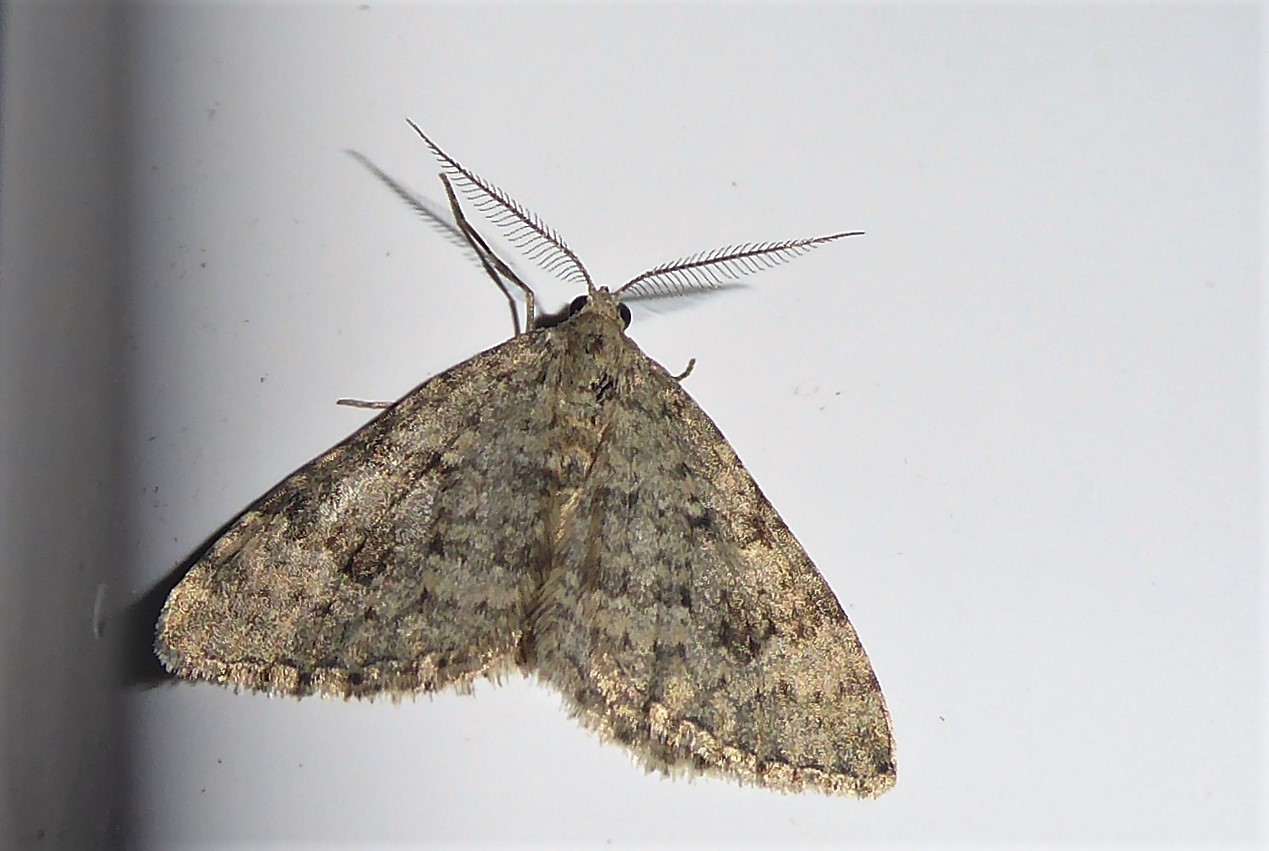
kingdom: Animalia
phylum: Arthropoda
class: Insecta
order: Lepidoptera
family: Geometridae
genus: Helastia
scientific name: Helastia corcularia
